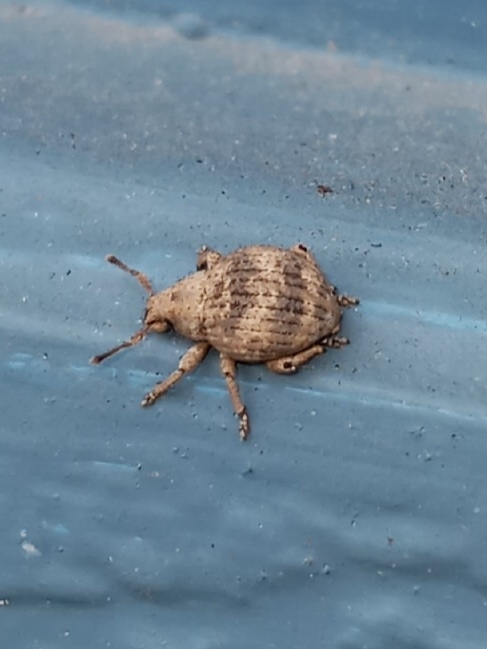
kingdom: Animalia
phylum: Arthropoda
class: Insecta
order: Coleoptera
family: Curculionidae
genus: Pseudocneorhinus
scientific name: Pseudocneorhinus bifasciatus
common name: Two-banded japanese weevil
